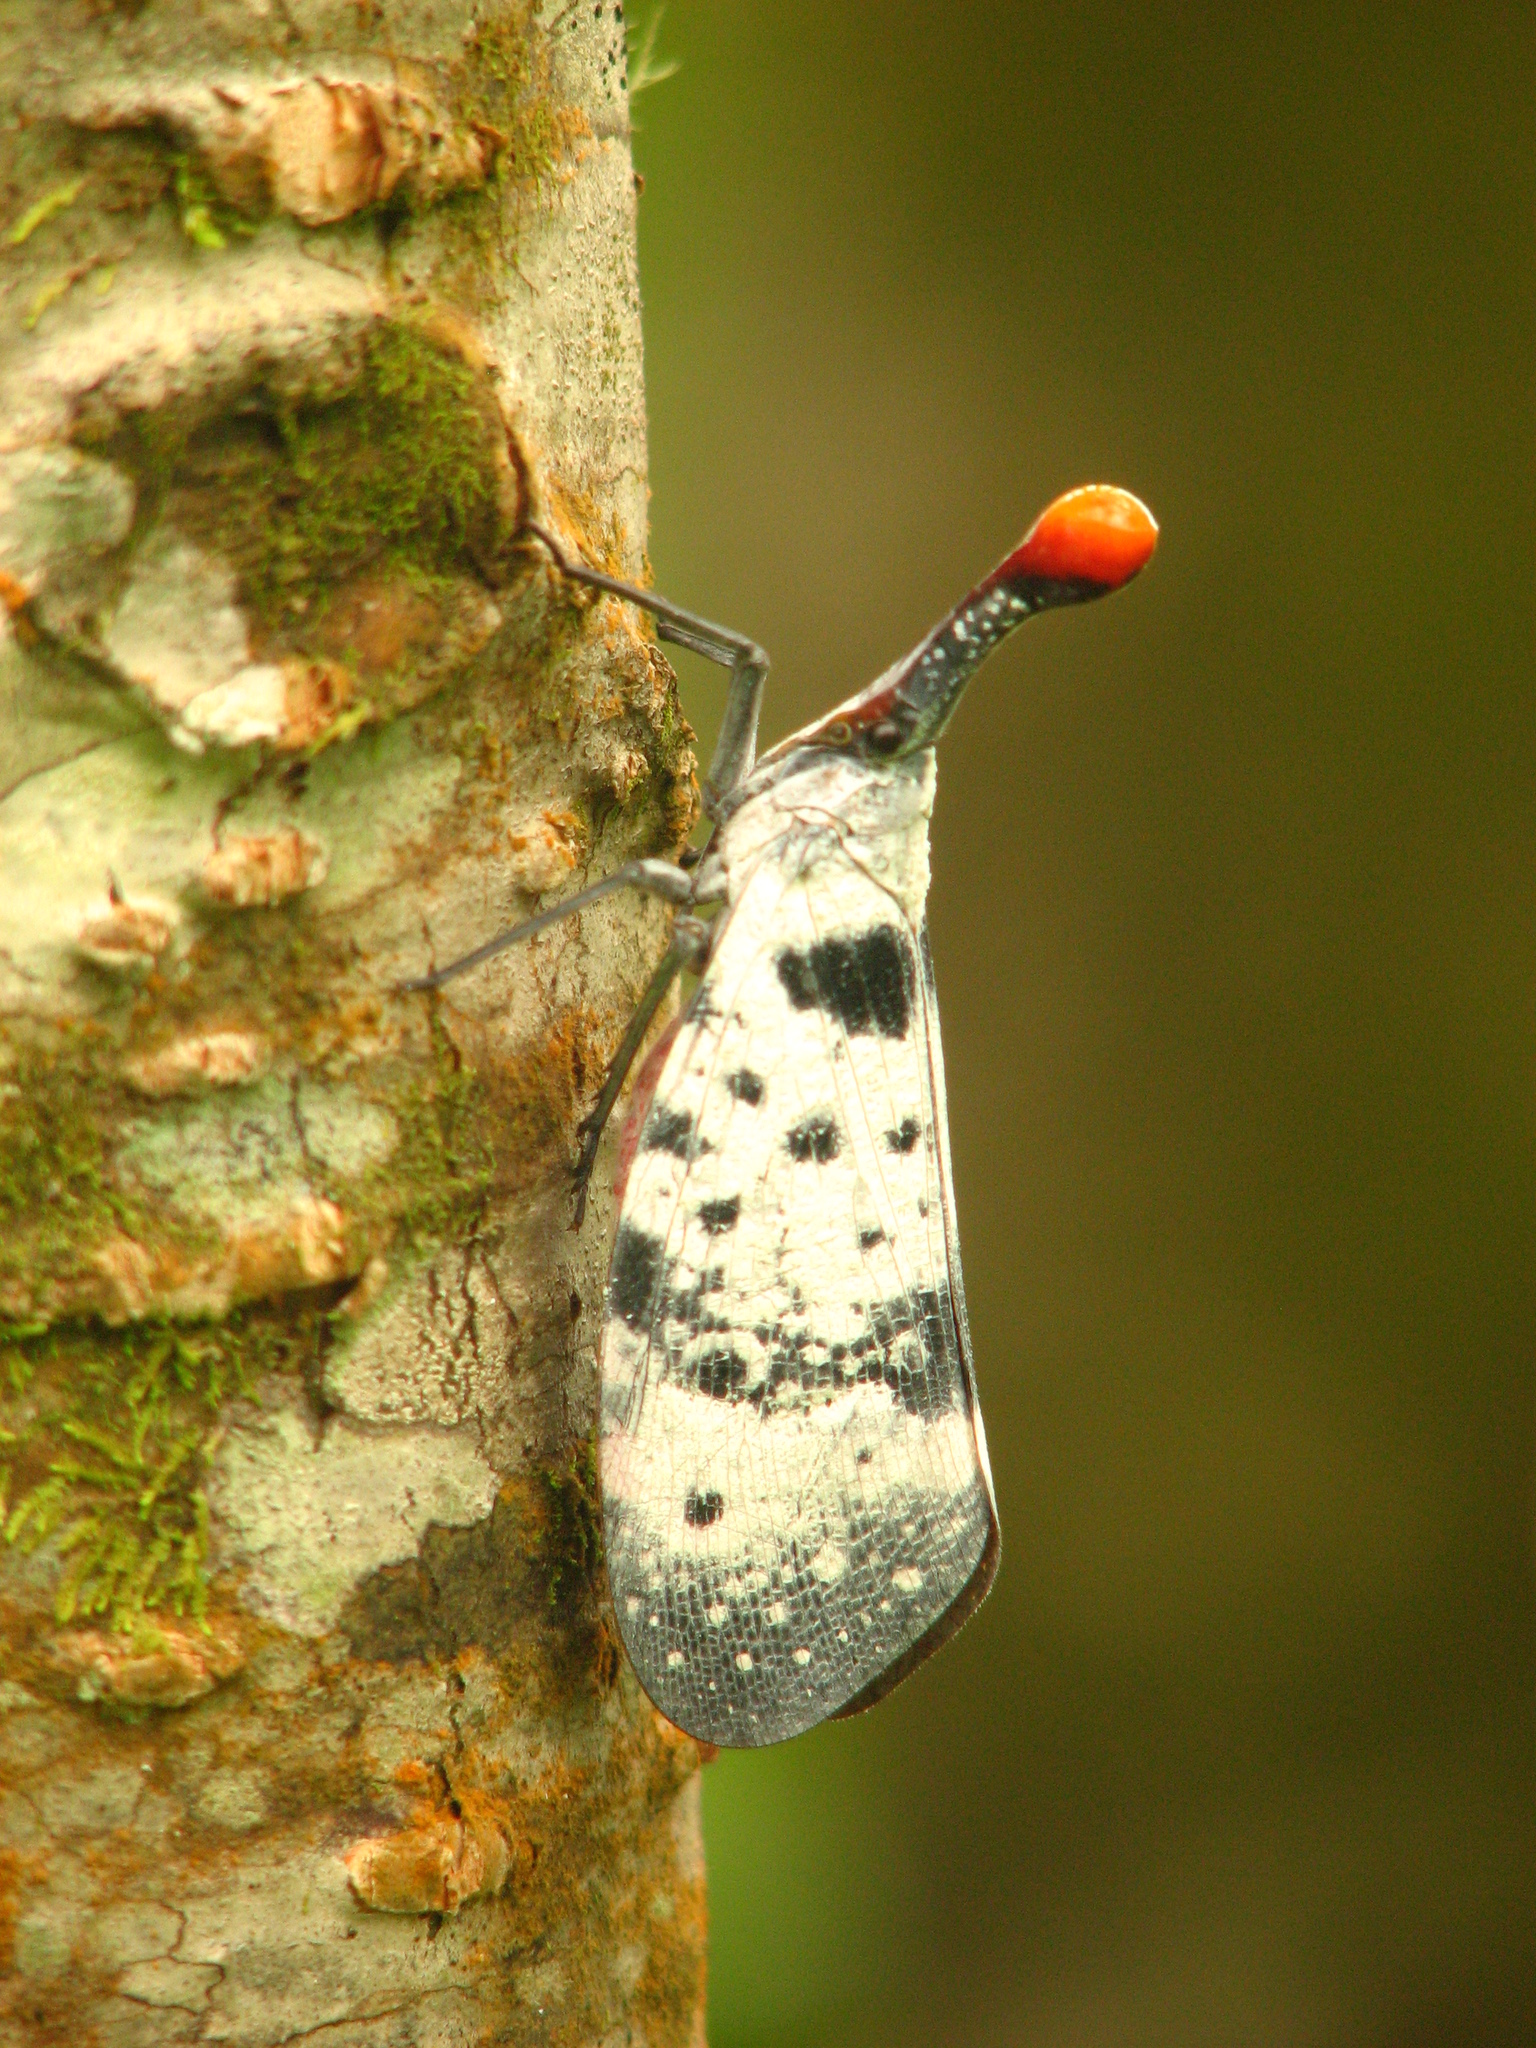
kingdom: Animalia
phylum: Arthropoda
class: Insecta
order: Hemiptera
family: Fulgoridae
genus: Pyrops
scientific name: Pyrops clavatus
